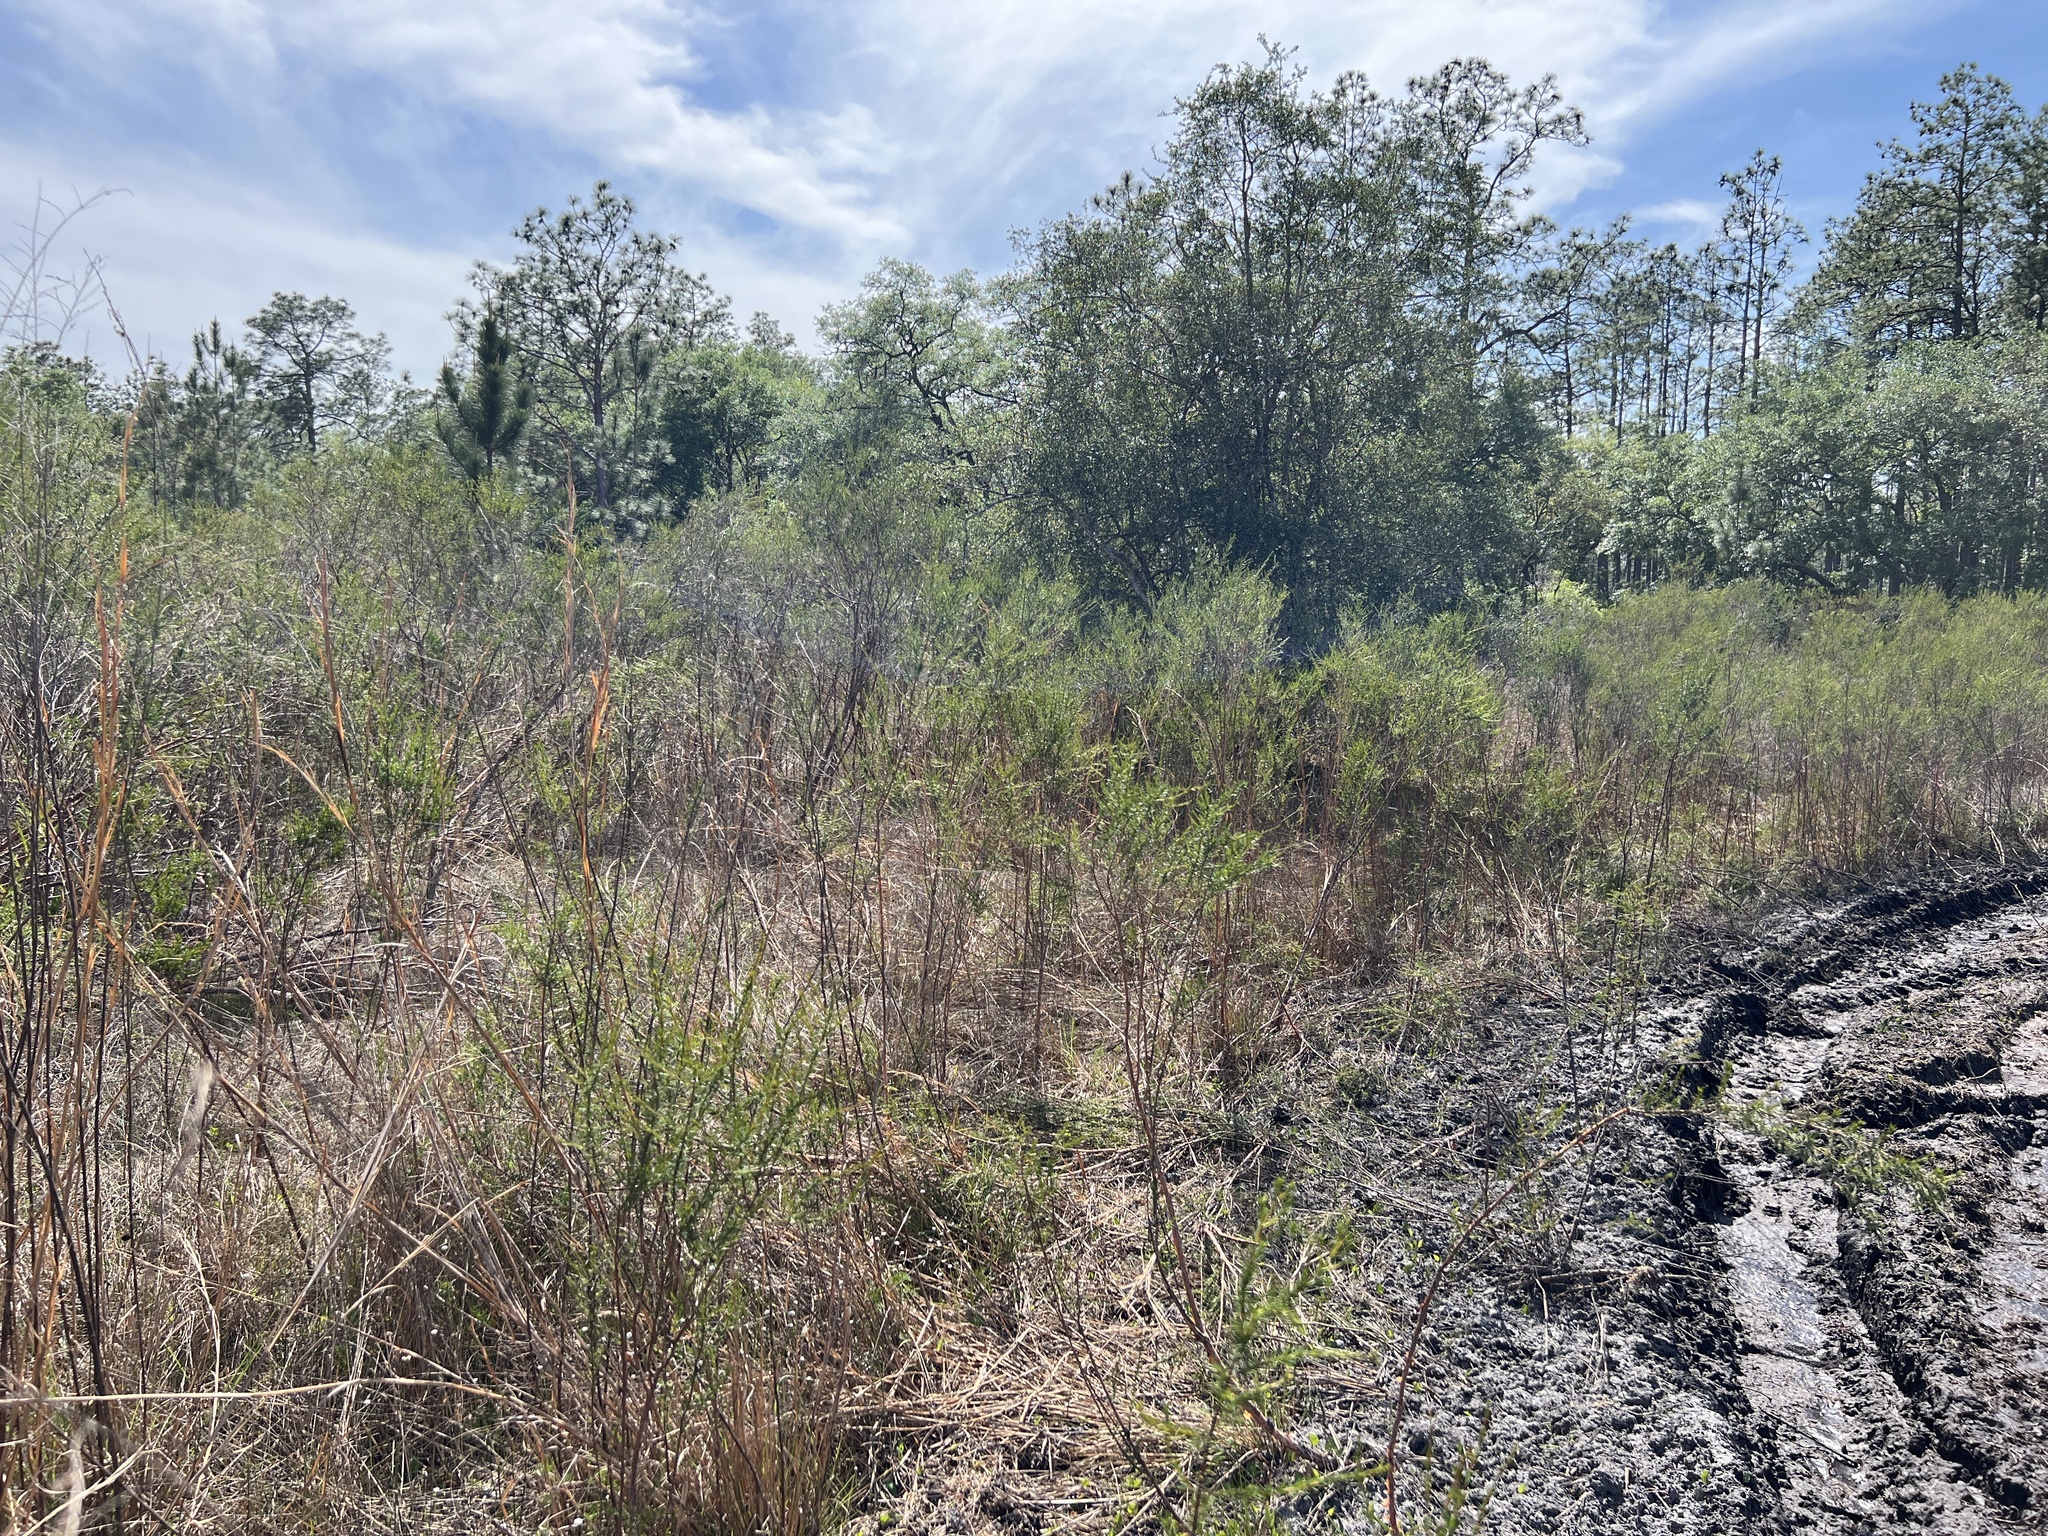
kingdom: Plantae
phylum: Tracheophyta
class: Magnoliopsida
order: Malpighiales
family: Hypericaceae
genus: Hypericum
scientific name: Hypericum fasciculatum
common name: Peelbark st. john's wort
